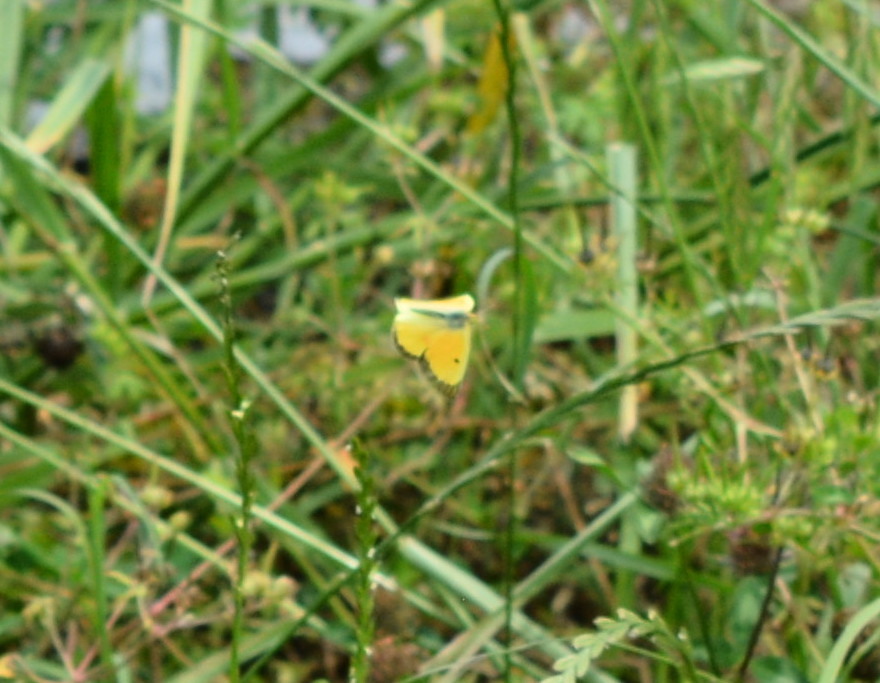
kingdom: Animalia
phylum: Arthropoda
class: Insecta
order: Lepidoptera
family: Pieridae
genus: Colias
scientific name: Colias eurytheme
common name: Alfalfa butterfly
